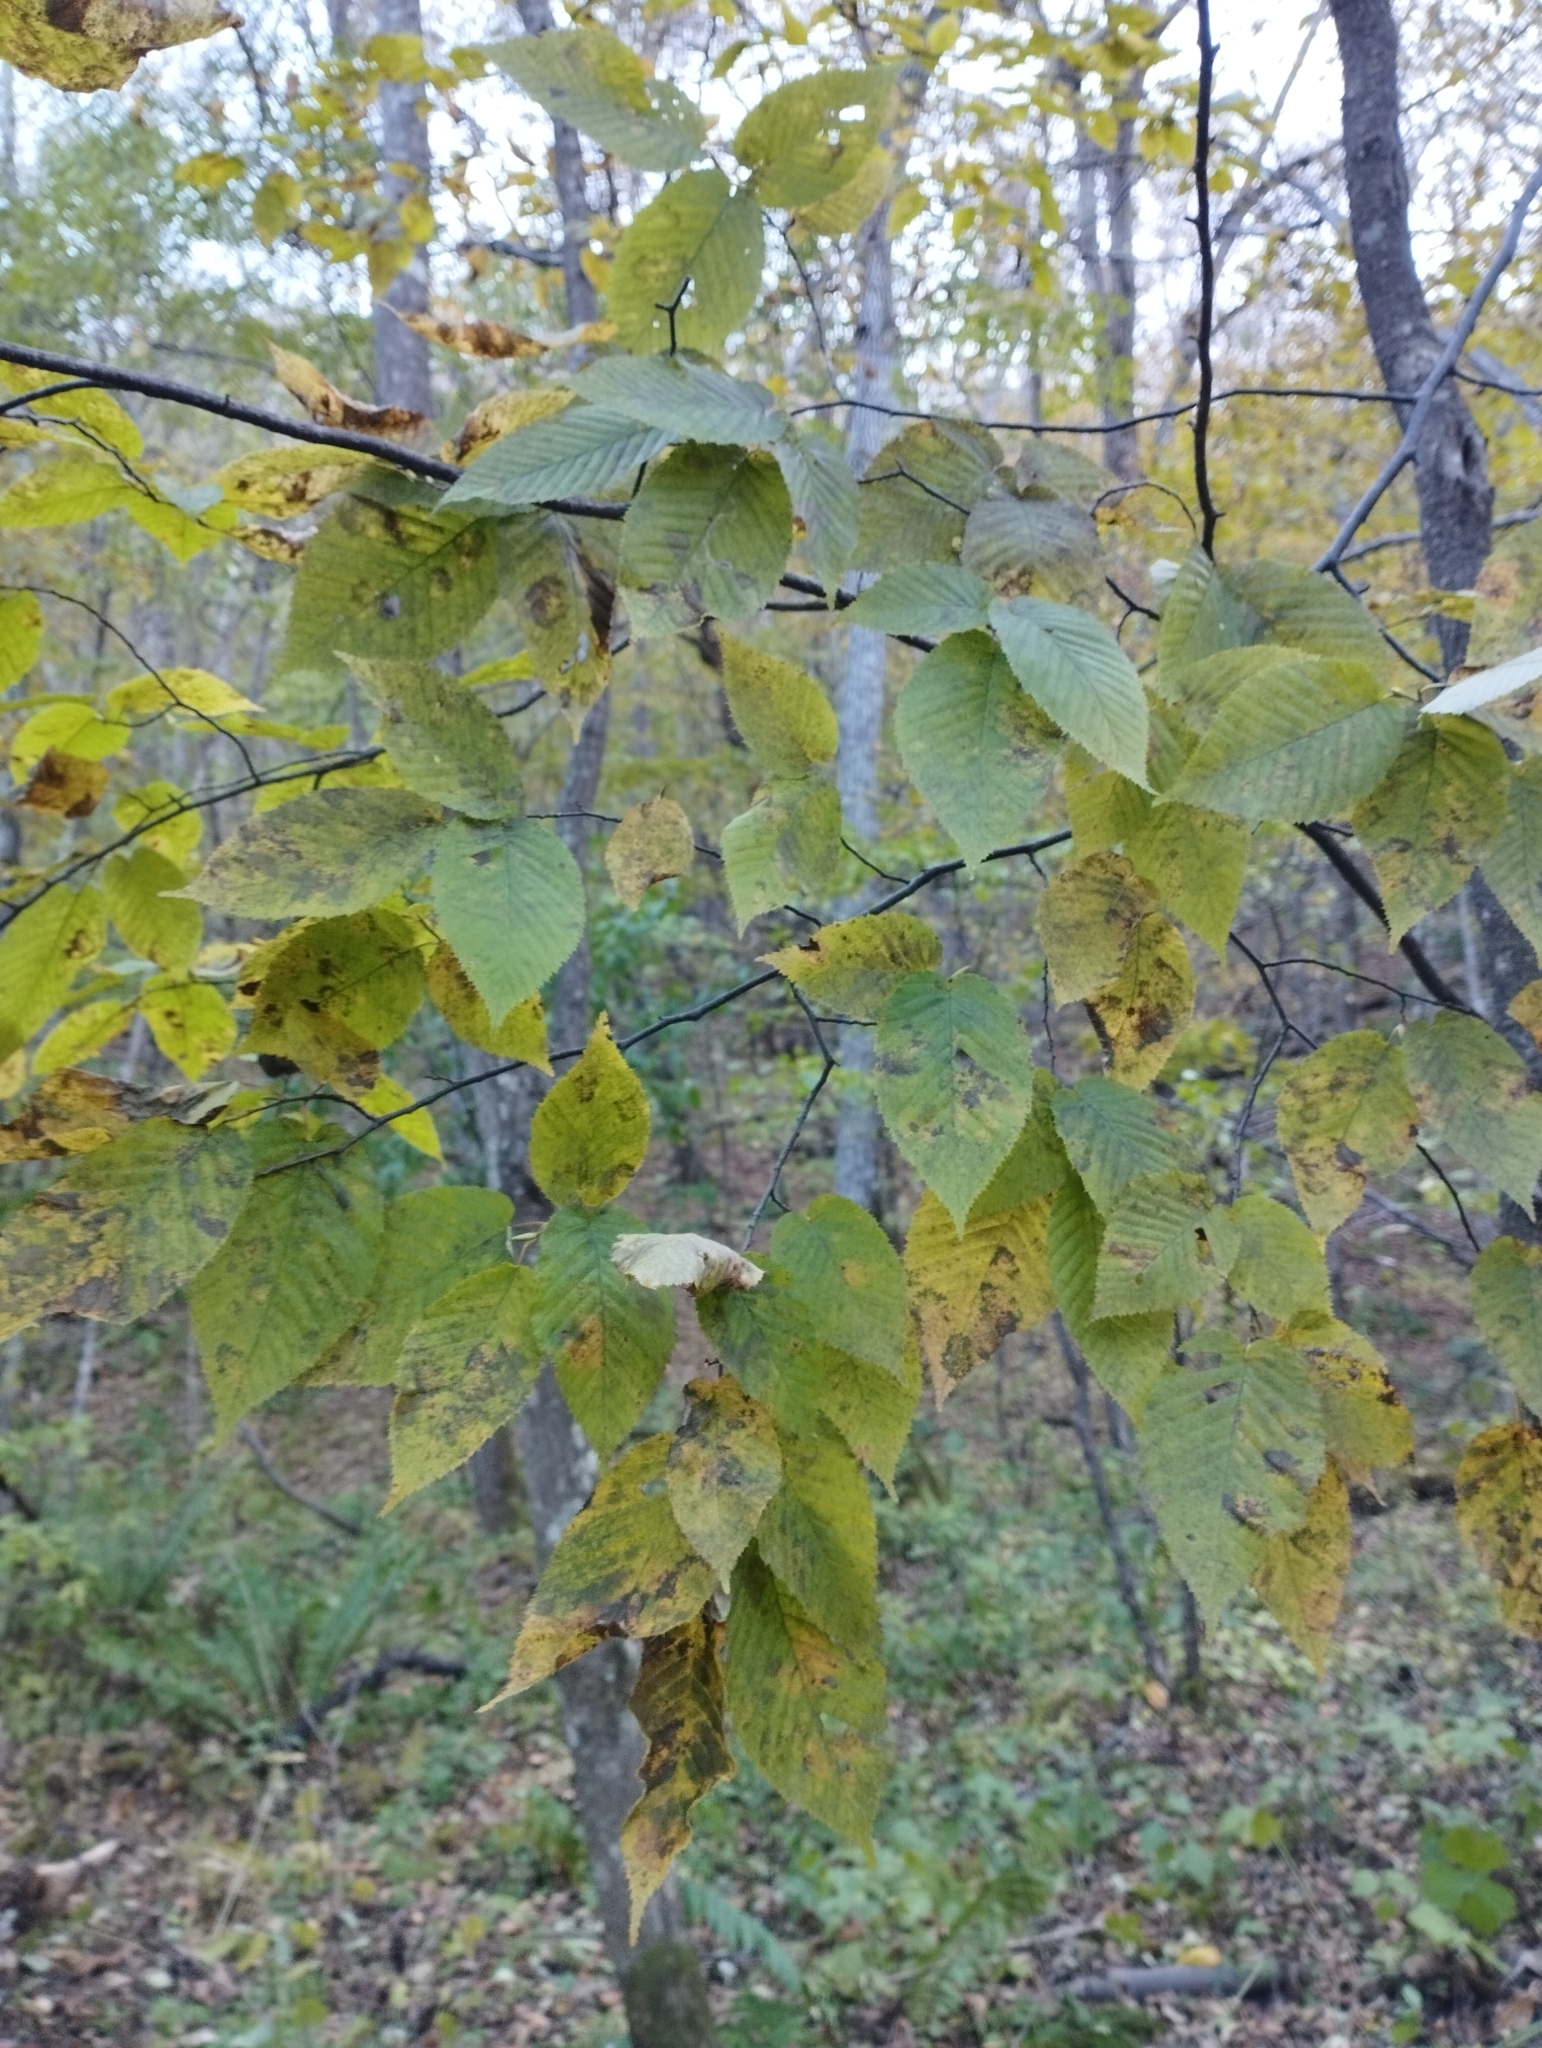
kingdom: Plantae
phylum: Tracheophyta
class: Magnoliopsida
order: Fagales
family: Betulaceae
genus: Carpinus
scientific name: Carpinus cordata
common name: Sawa hornbeam
